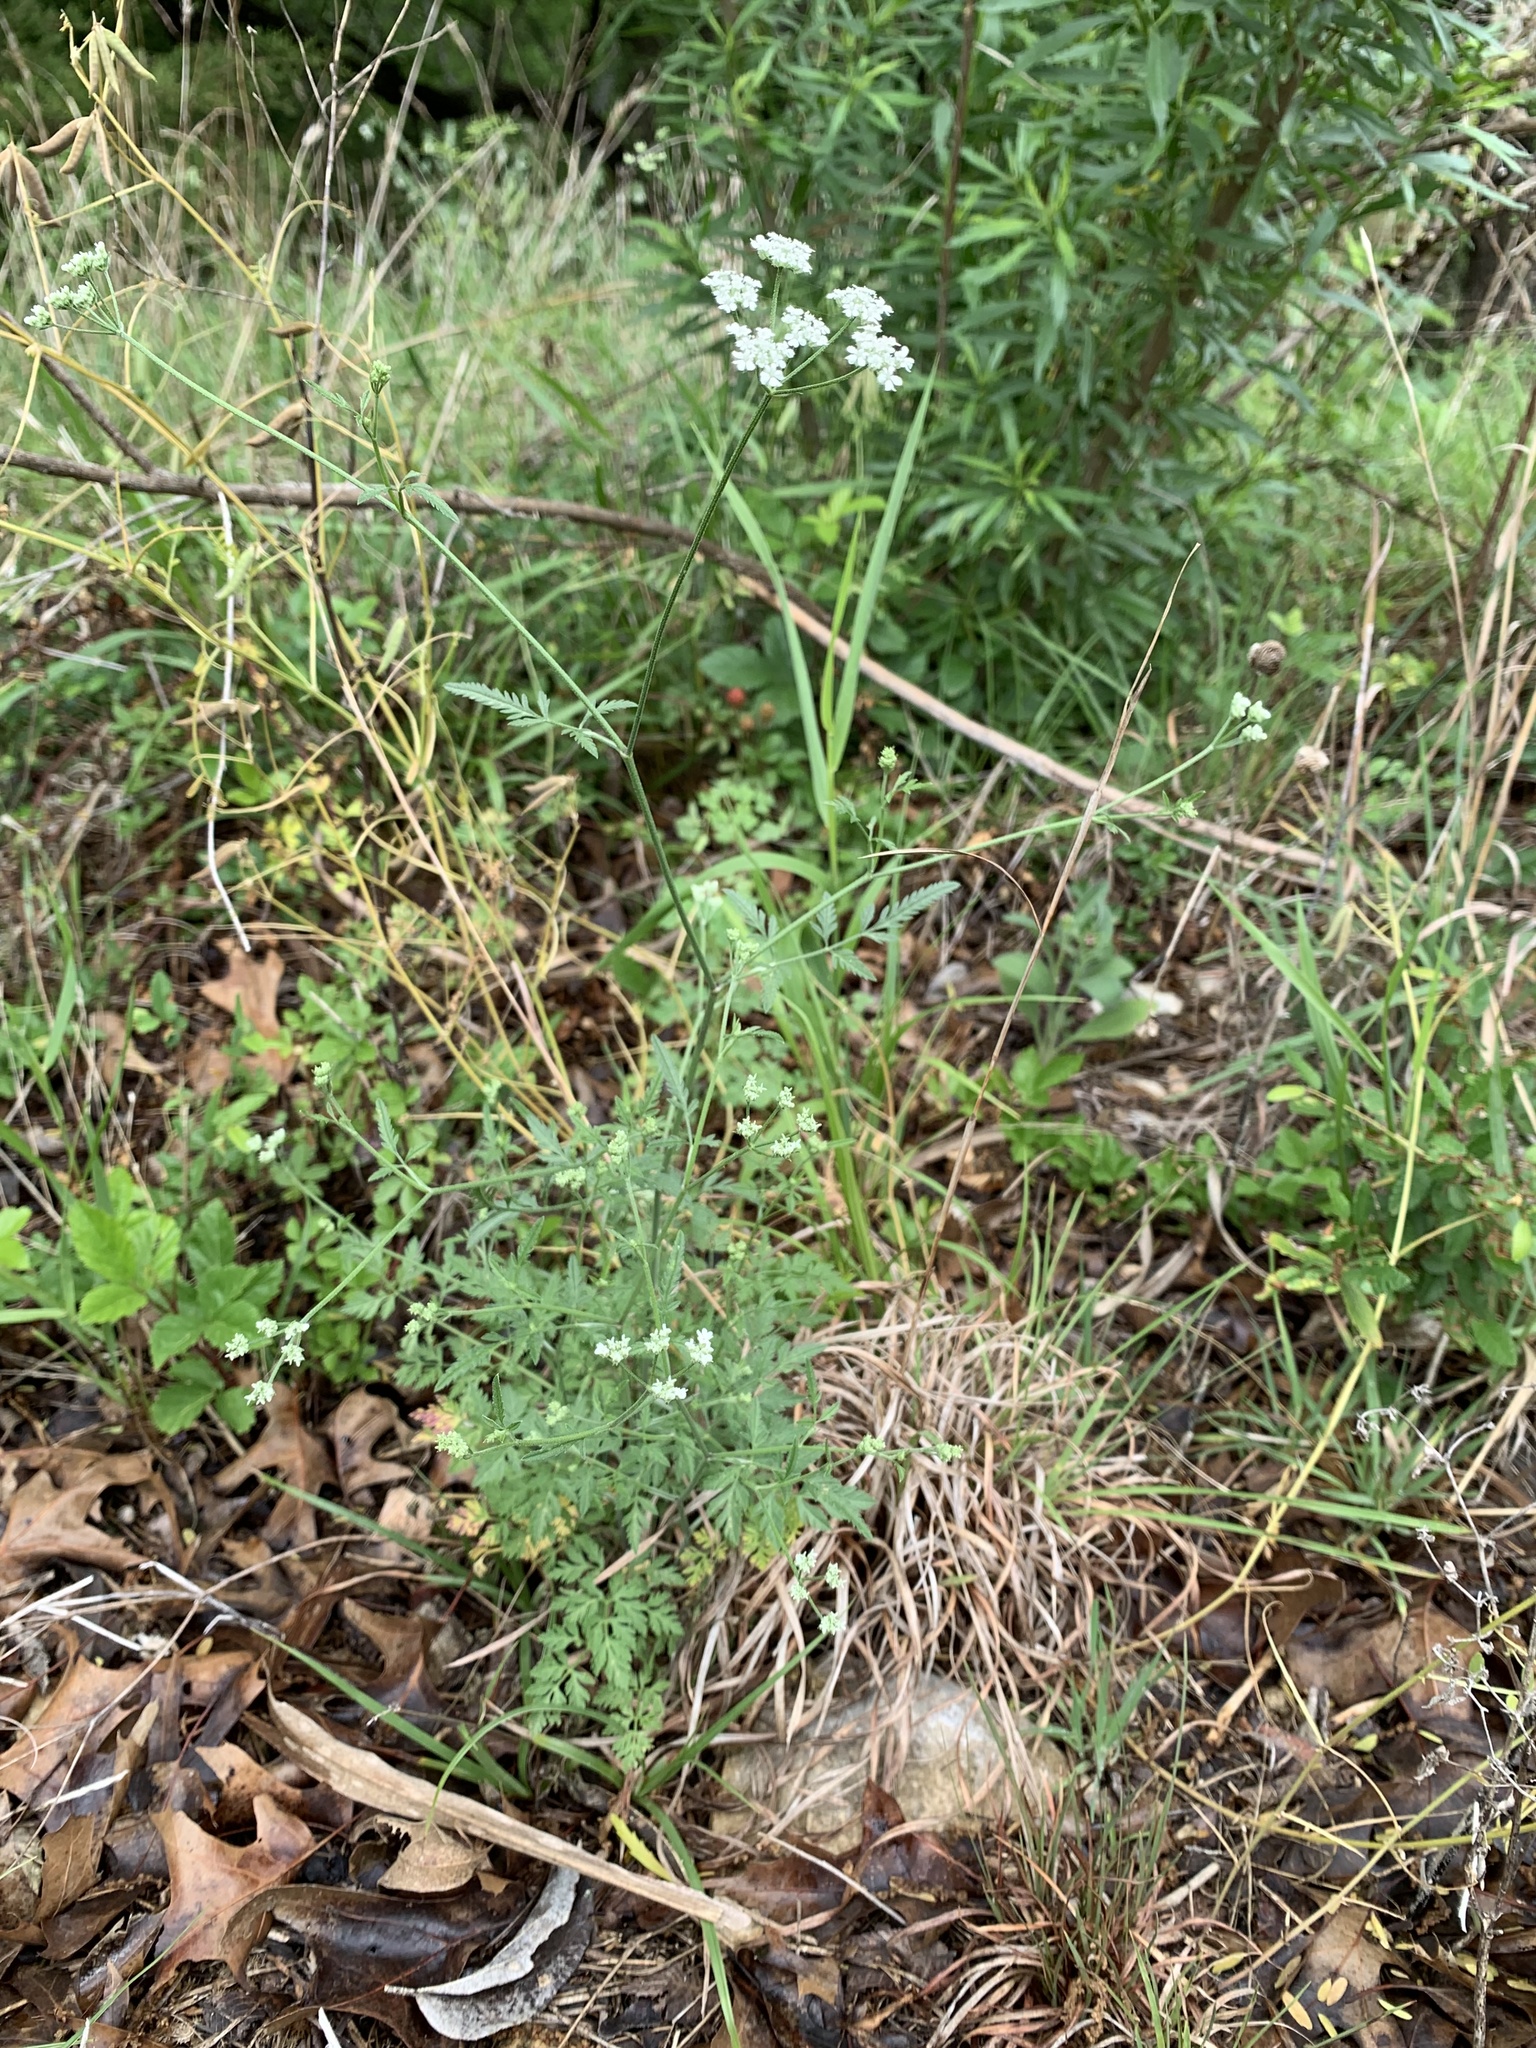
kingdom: Plantae
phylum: Tracheophyta
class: Magnoliopsida
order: Apiales
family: Apiaceae
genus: Torilis
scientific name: Torilis arvensis
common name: Spreading hedge-parsley
